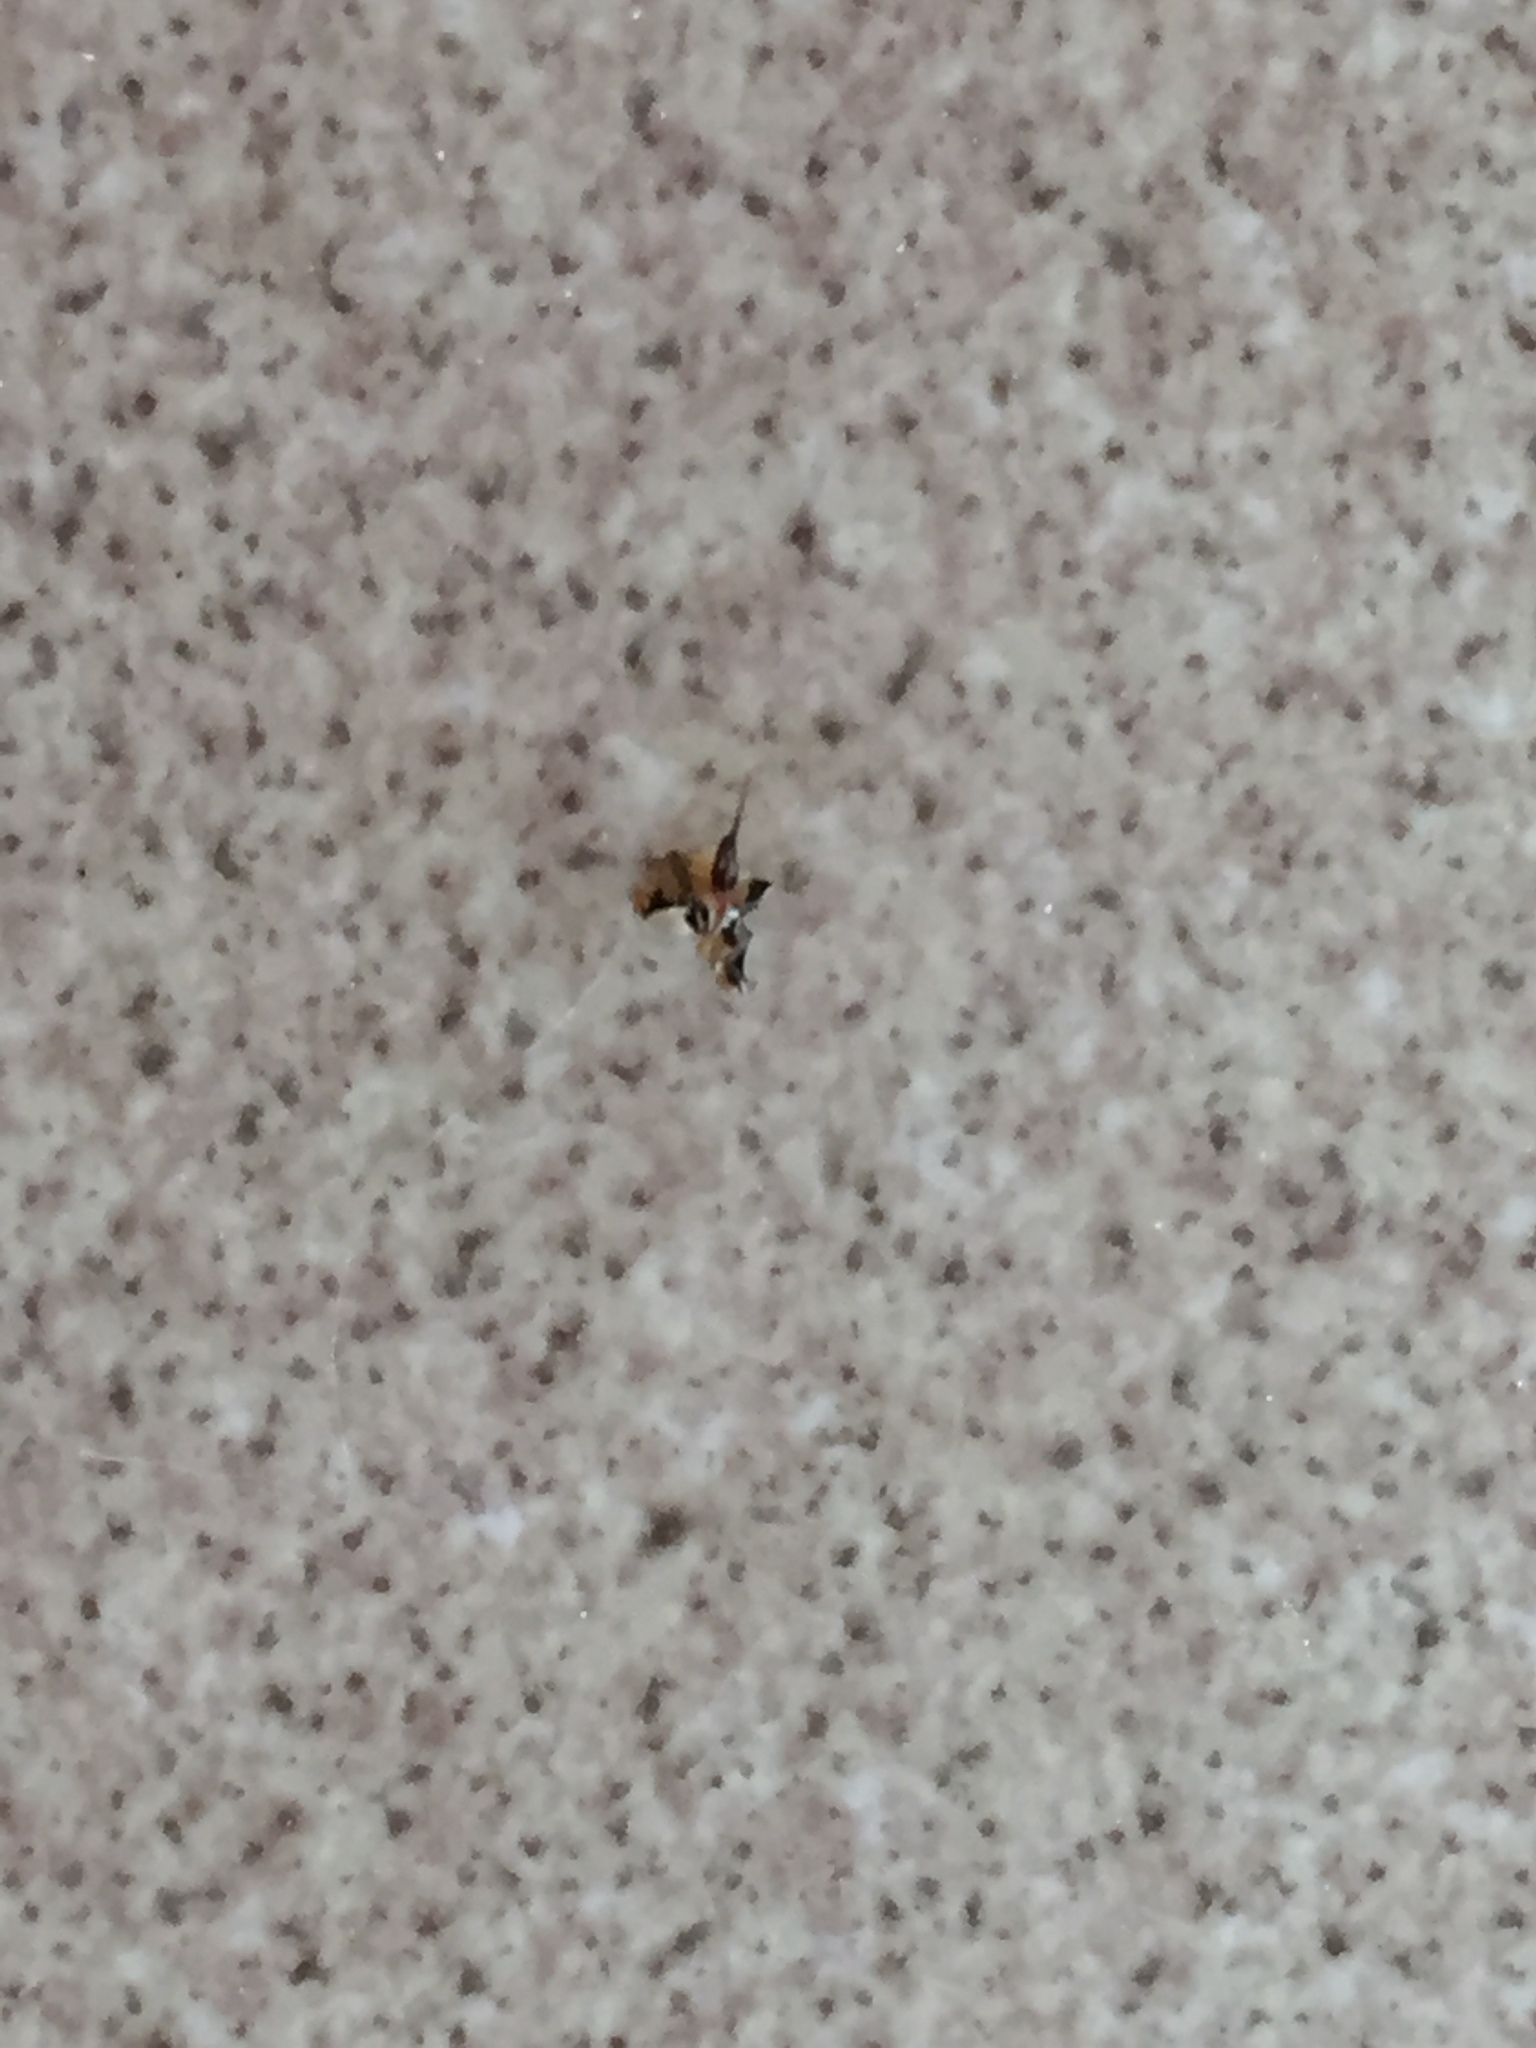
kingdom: Animalia
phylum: Arthropoda
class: Insecta
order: Hymenoptera
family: Apidae
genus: Apis
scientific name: Apis mellifera
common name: Honey bee
